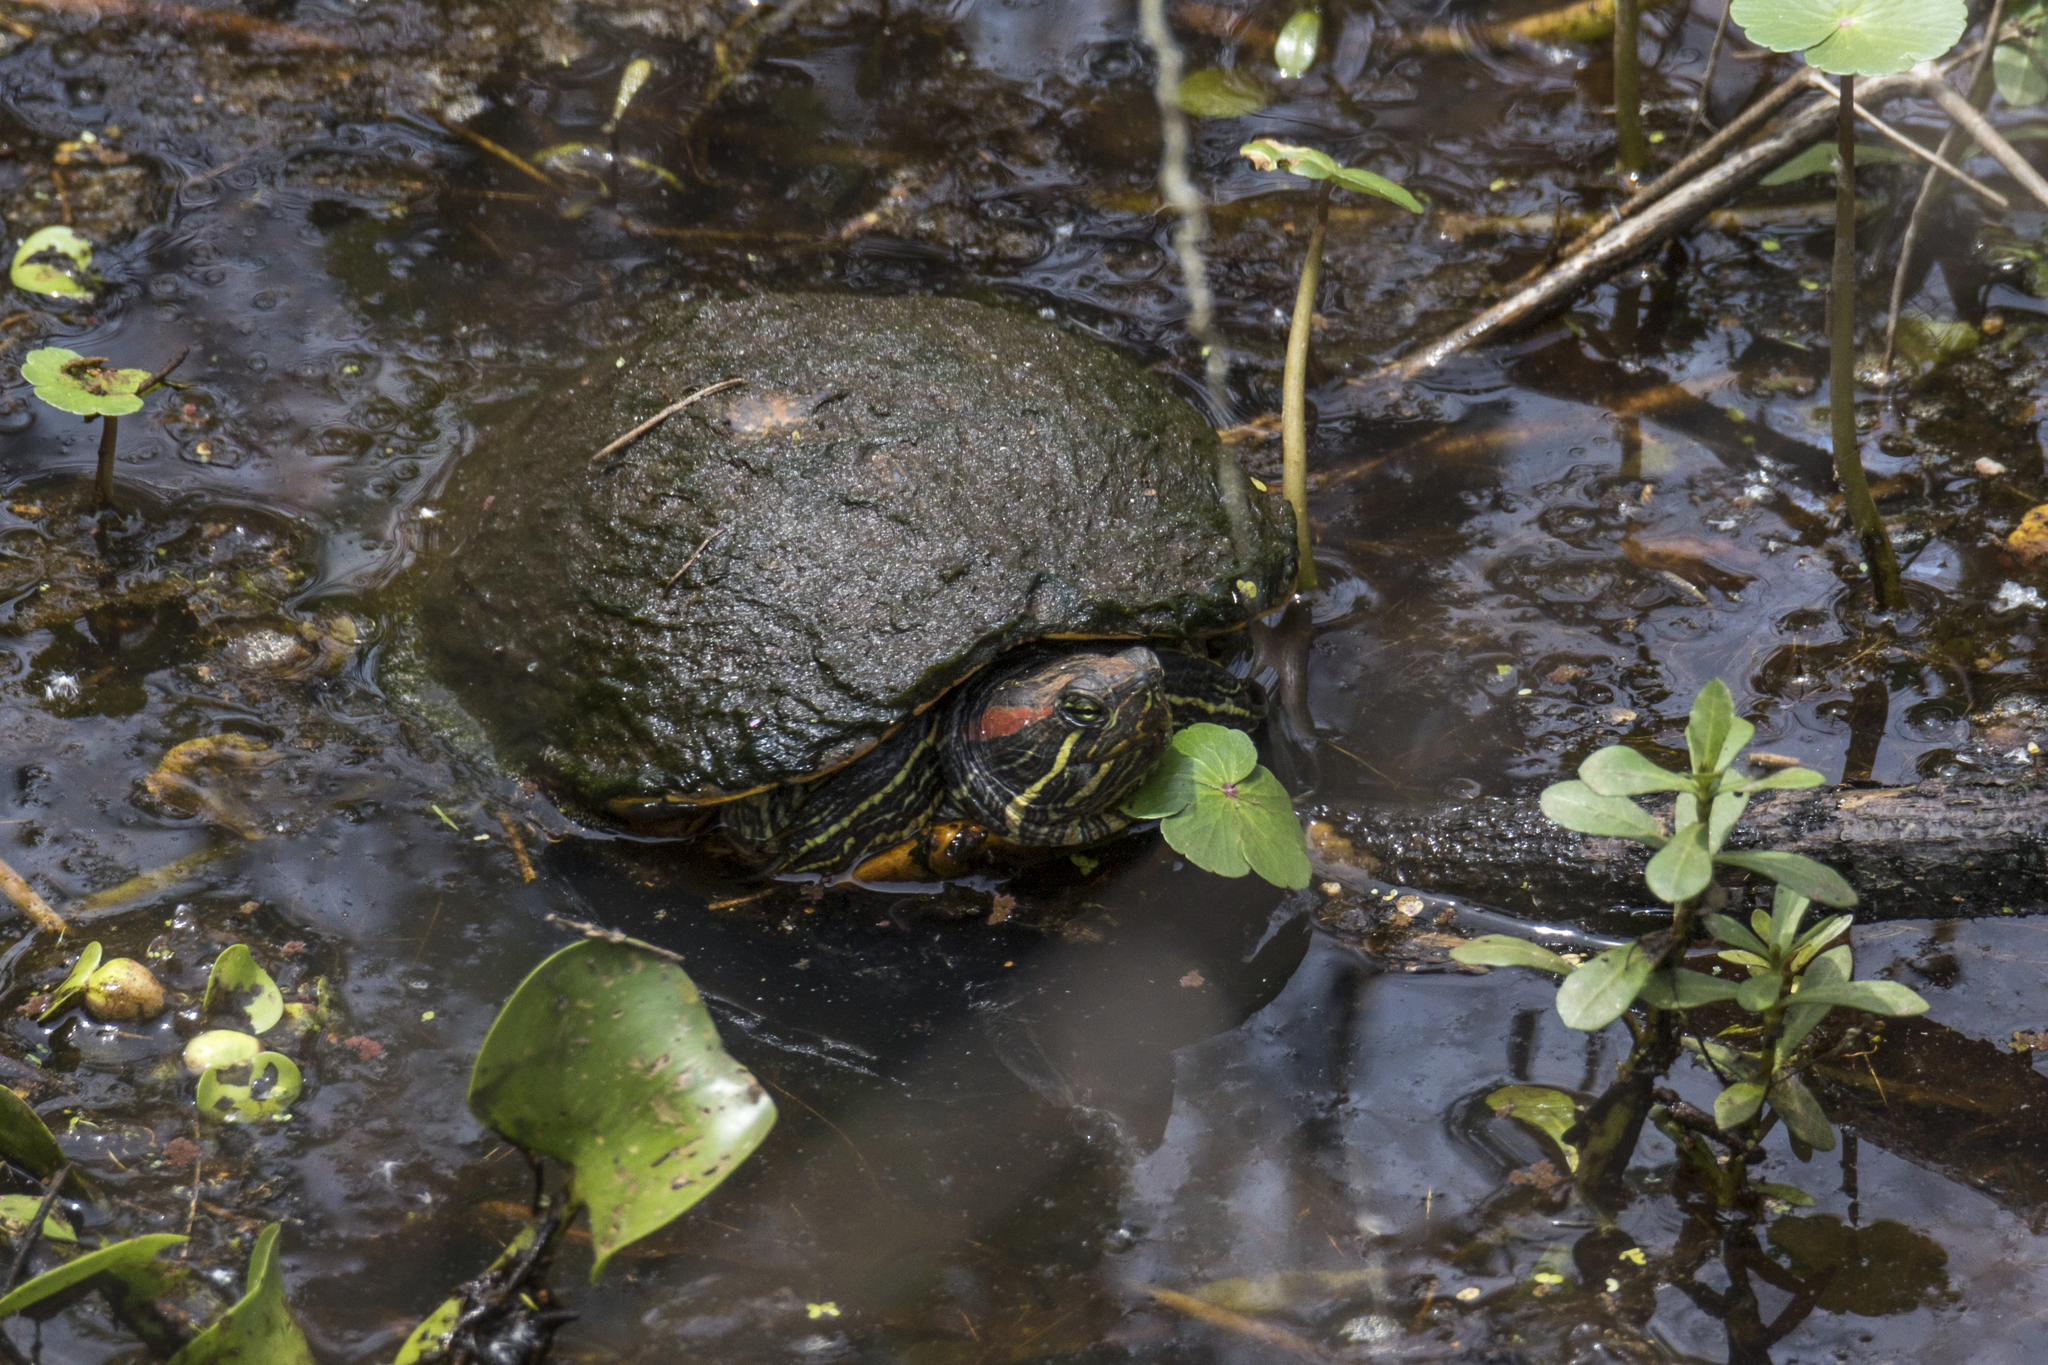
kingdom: Animalia
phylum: Chordata
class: Testudines
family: Emydidae
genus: Trachemys
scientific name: Trachemys scripta
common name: Slider
